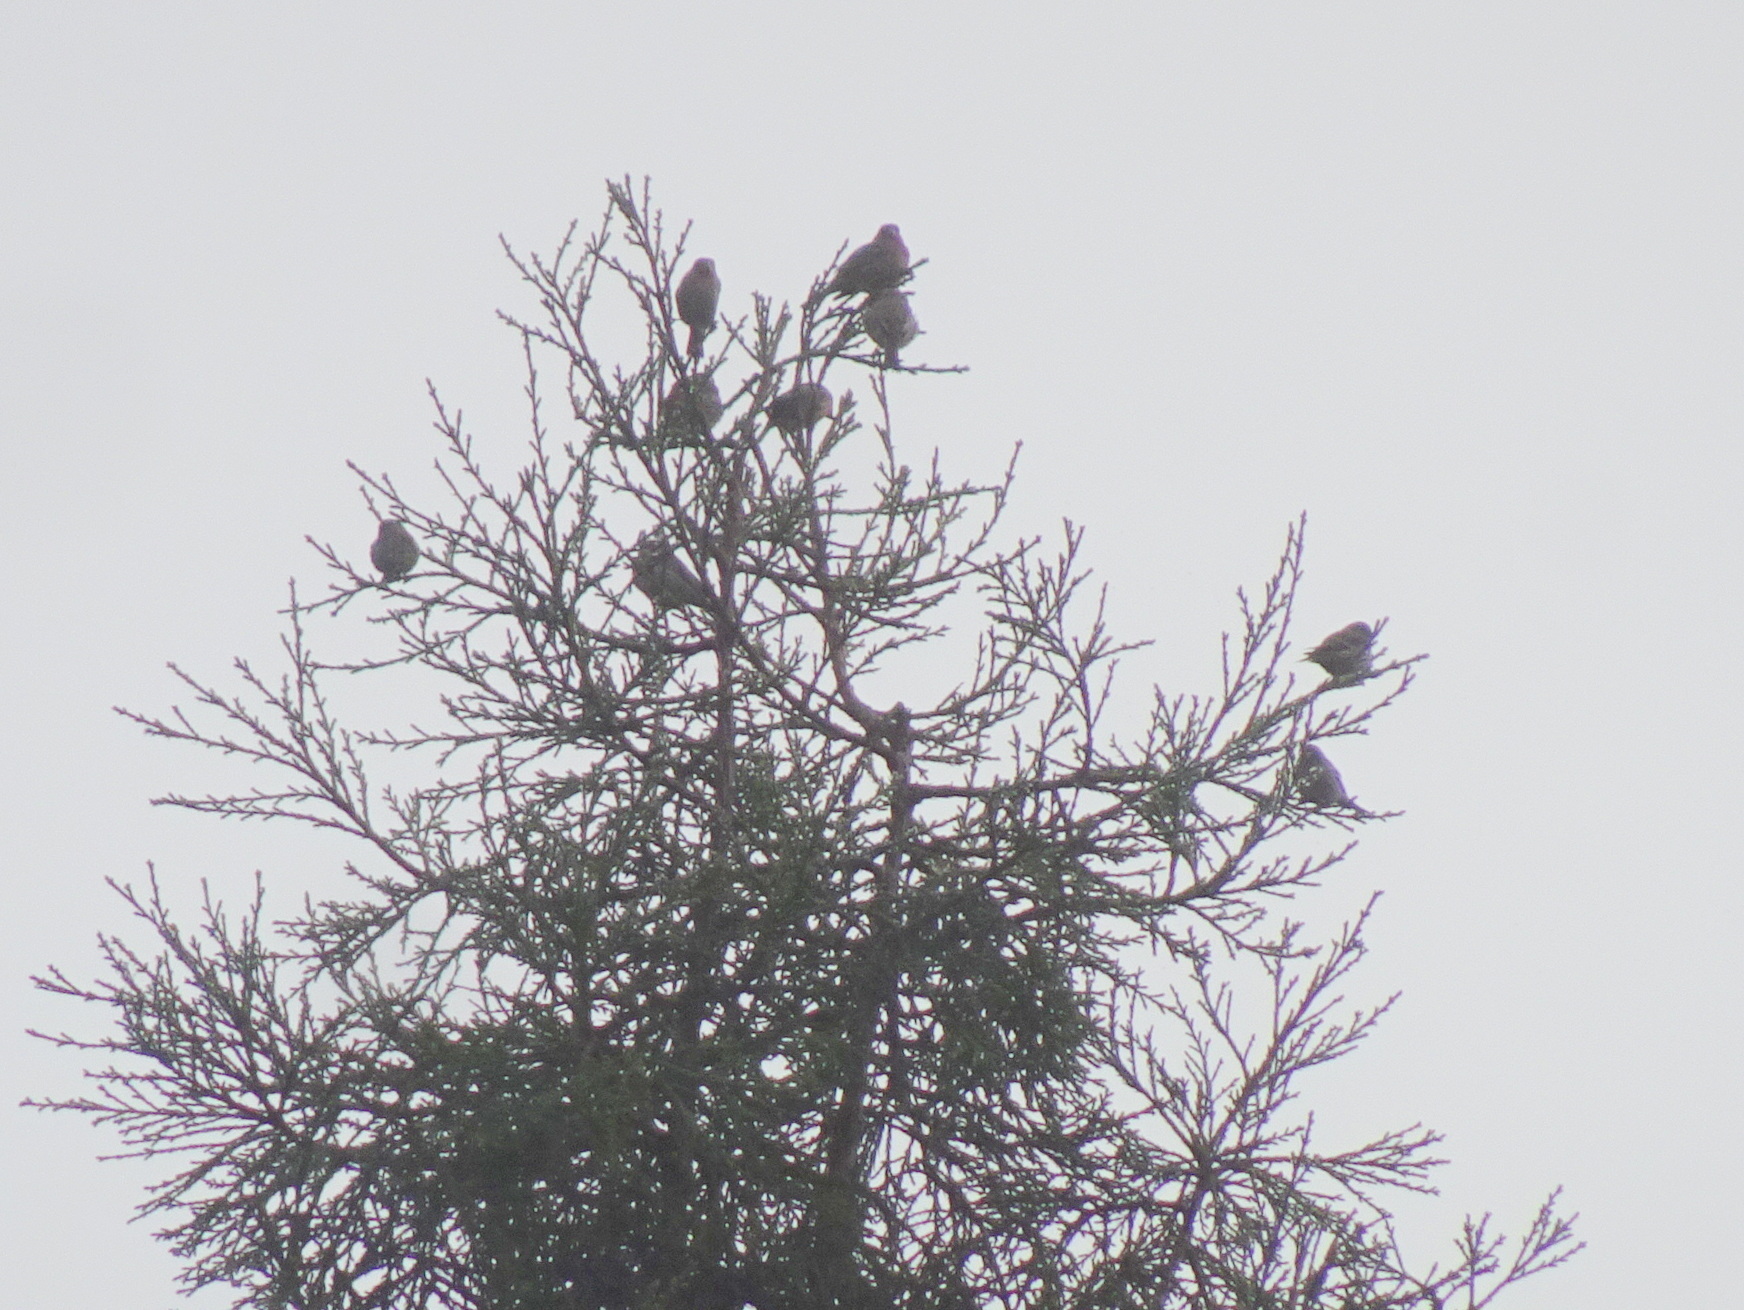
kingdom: Animalia
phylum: Chordata
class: Aves
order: Passeriformes
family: Fringillidae
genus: Haemorhous
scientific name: Haemorhous mexicanus
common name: House finch
